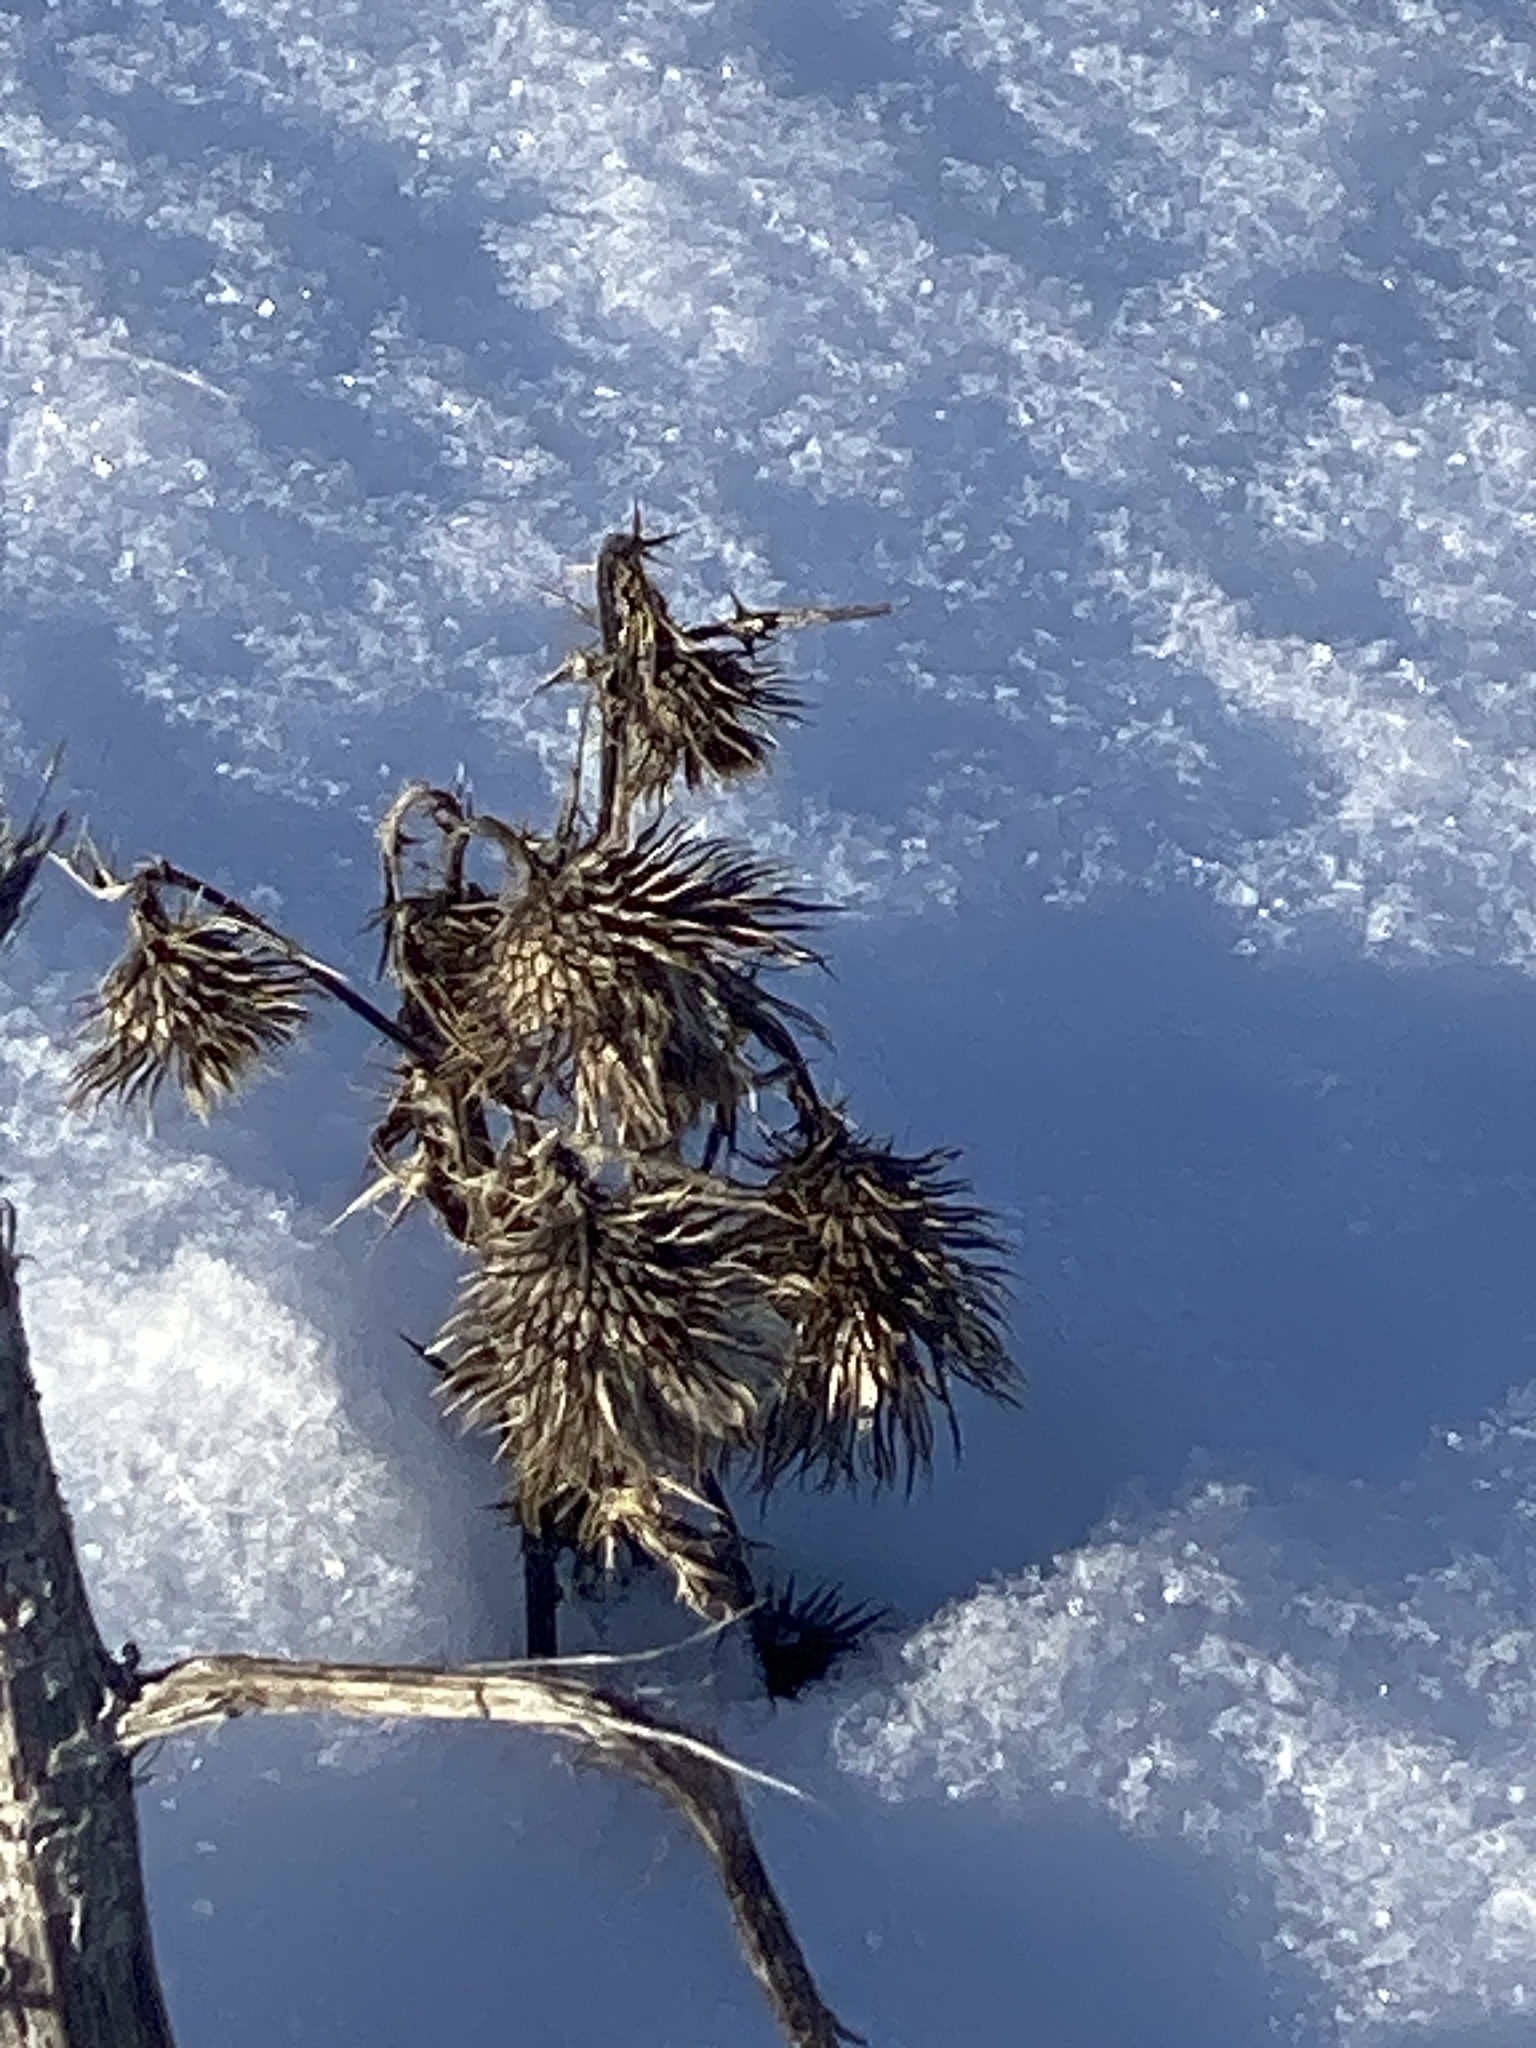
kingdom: Plantae
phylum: Tracheophyta
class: Magnoliopsida
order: Asterales
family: Asteraceae
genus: Cirsium
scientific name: Cirsium vulgare
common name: Bull thistle
